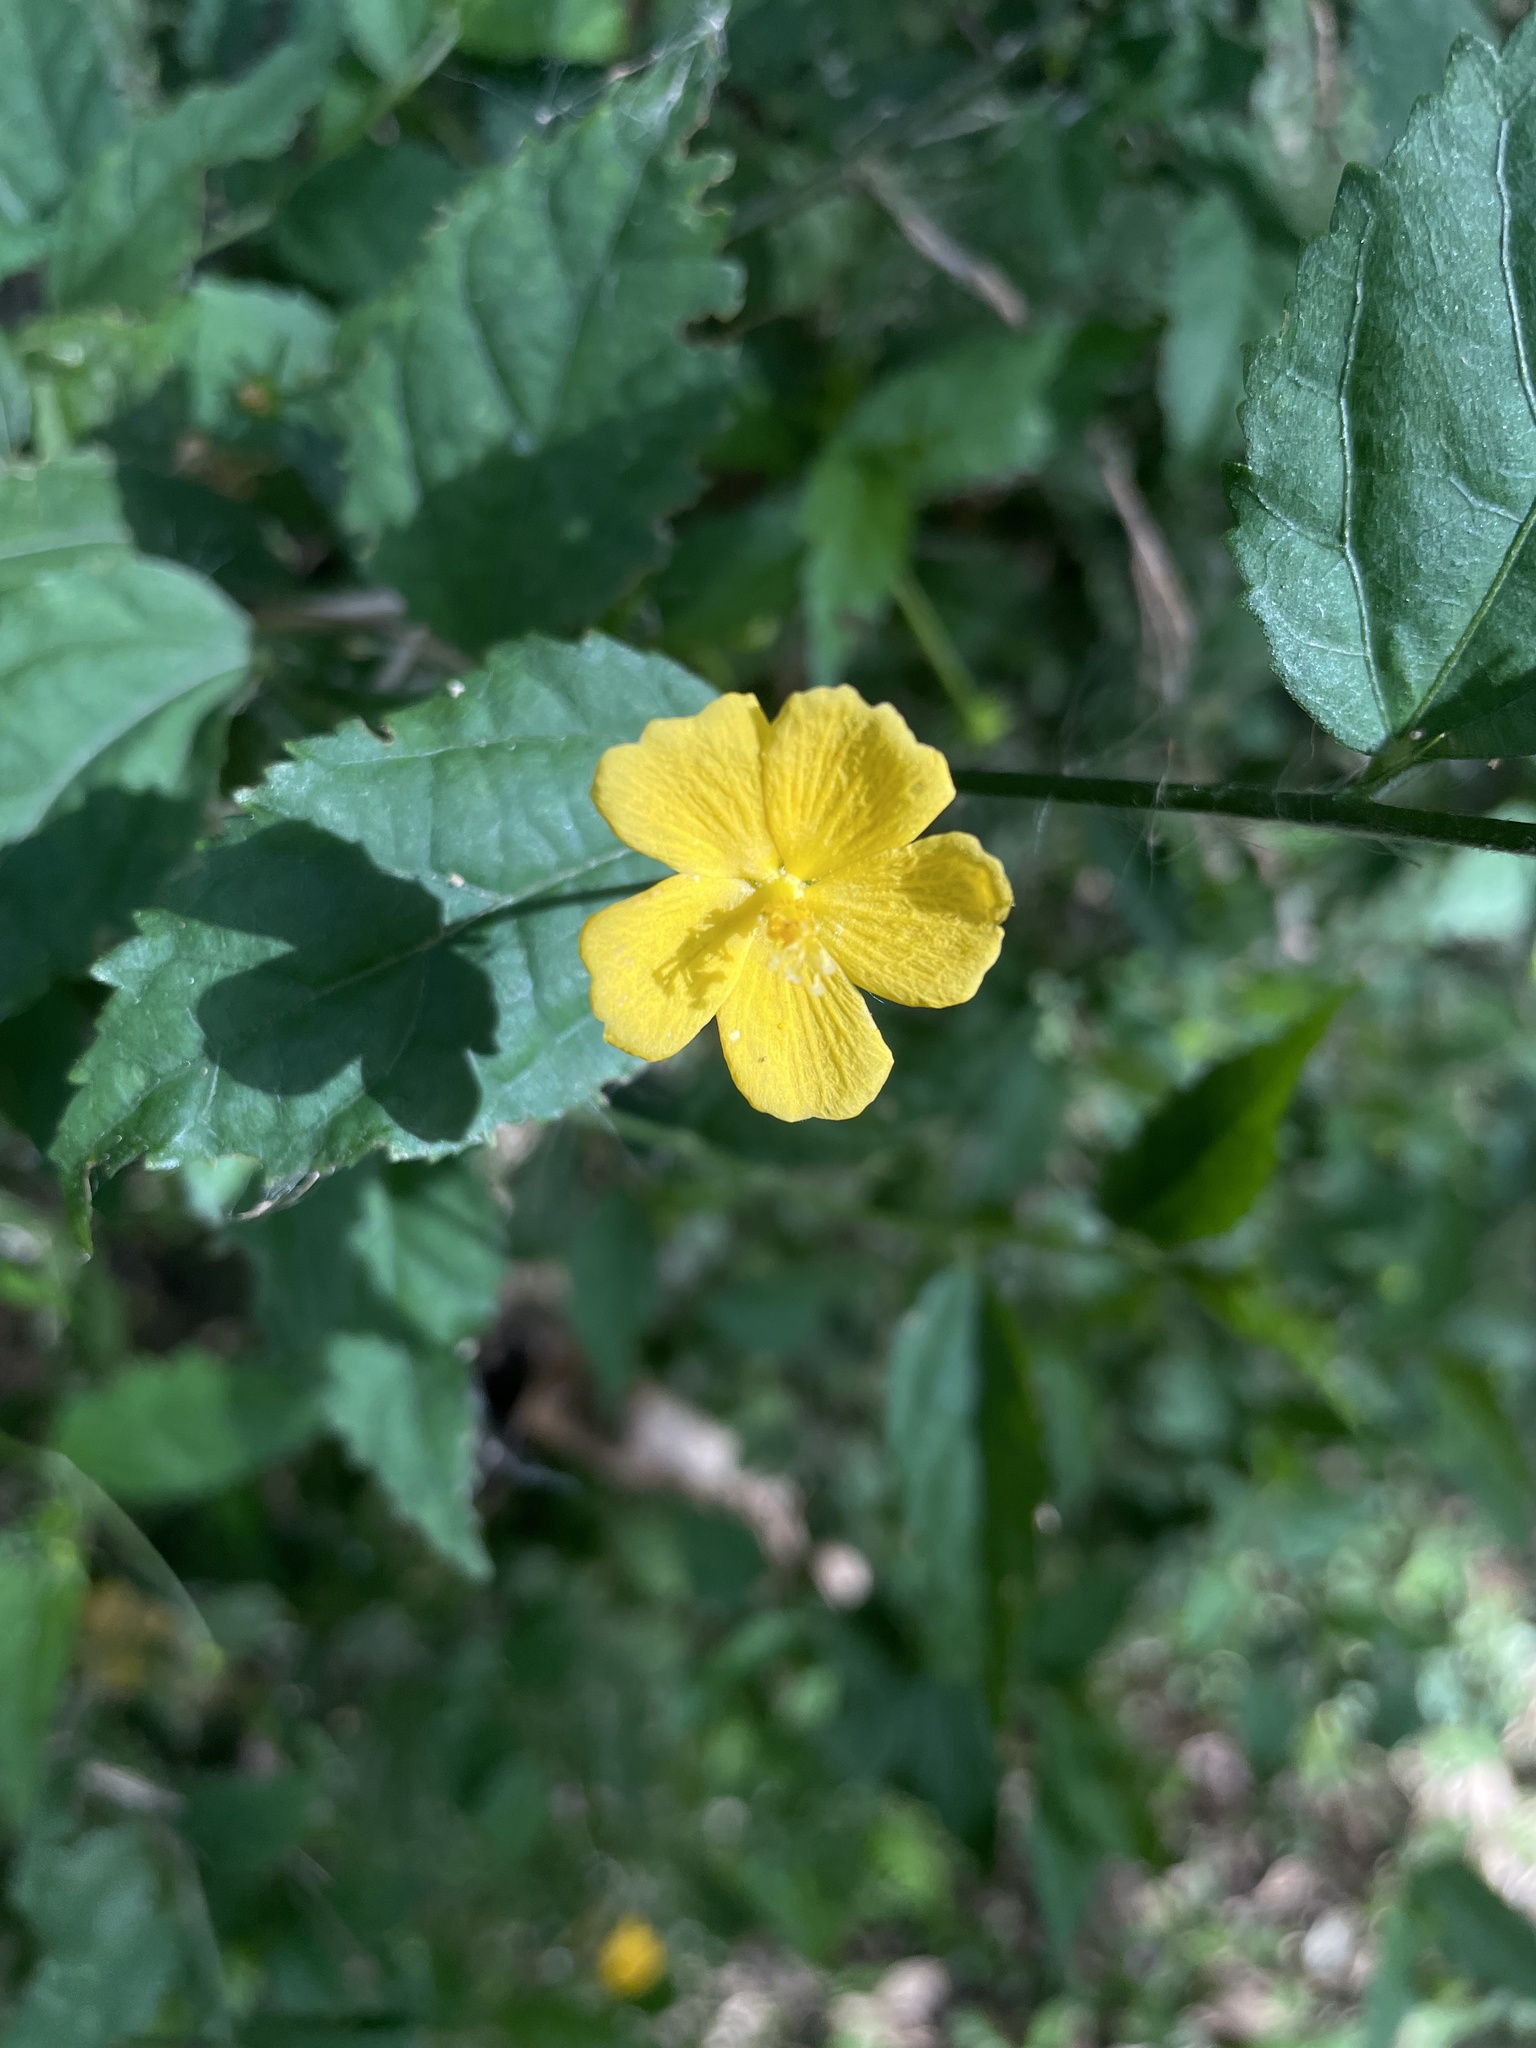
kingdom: Plantae
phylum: Tracheophyta
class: Magnoliopsida
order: Malvales
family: Malvaceae
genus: Pavonia
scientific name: Pavonia sepium
